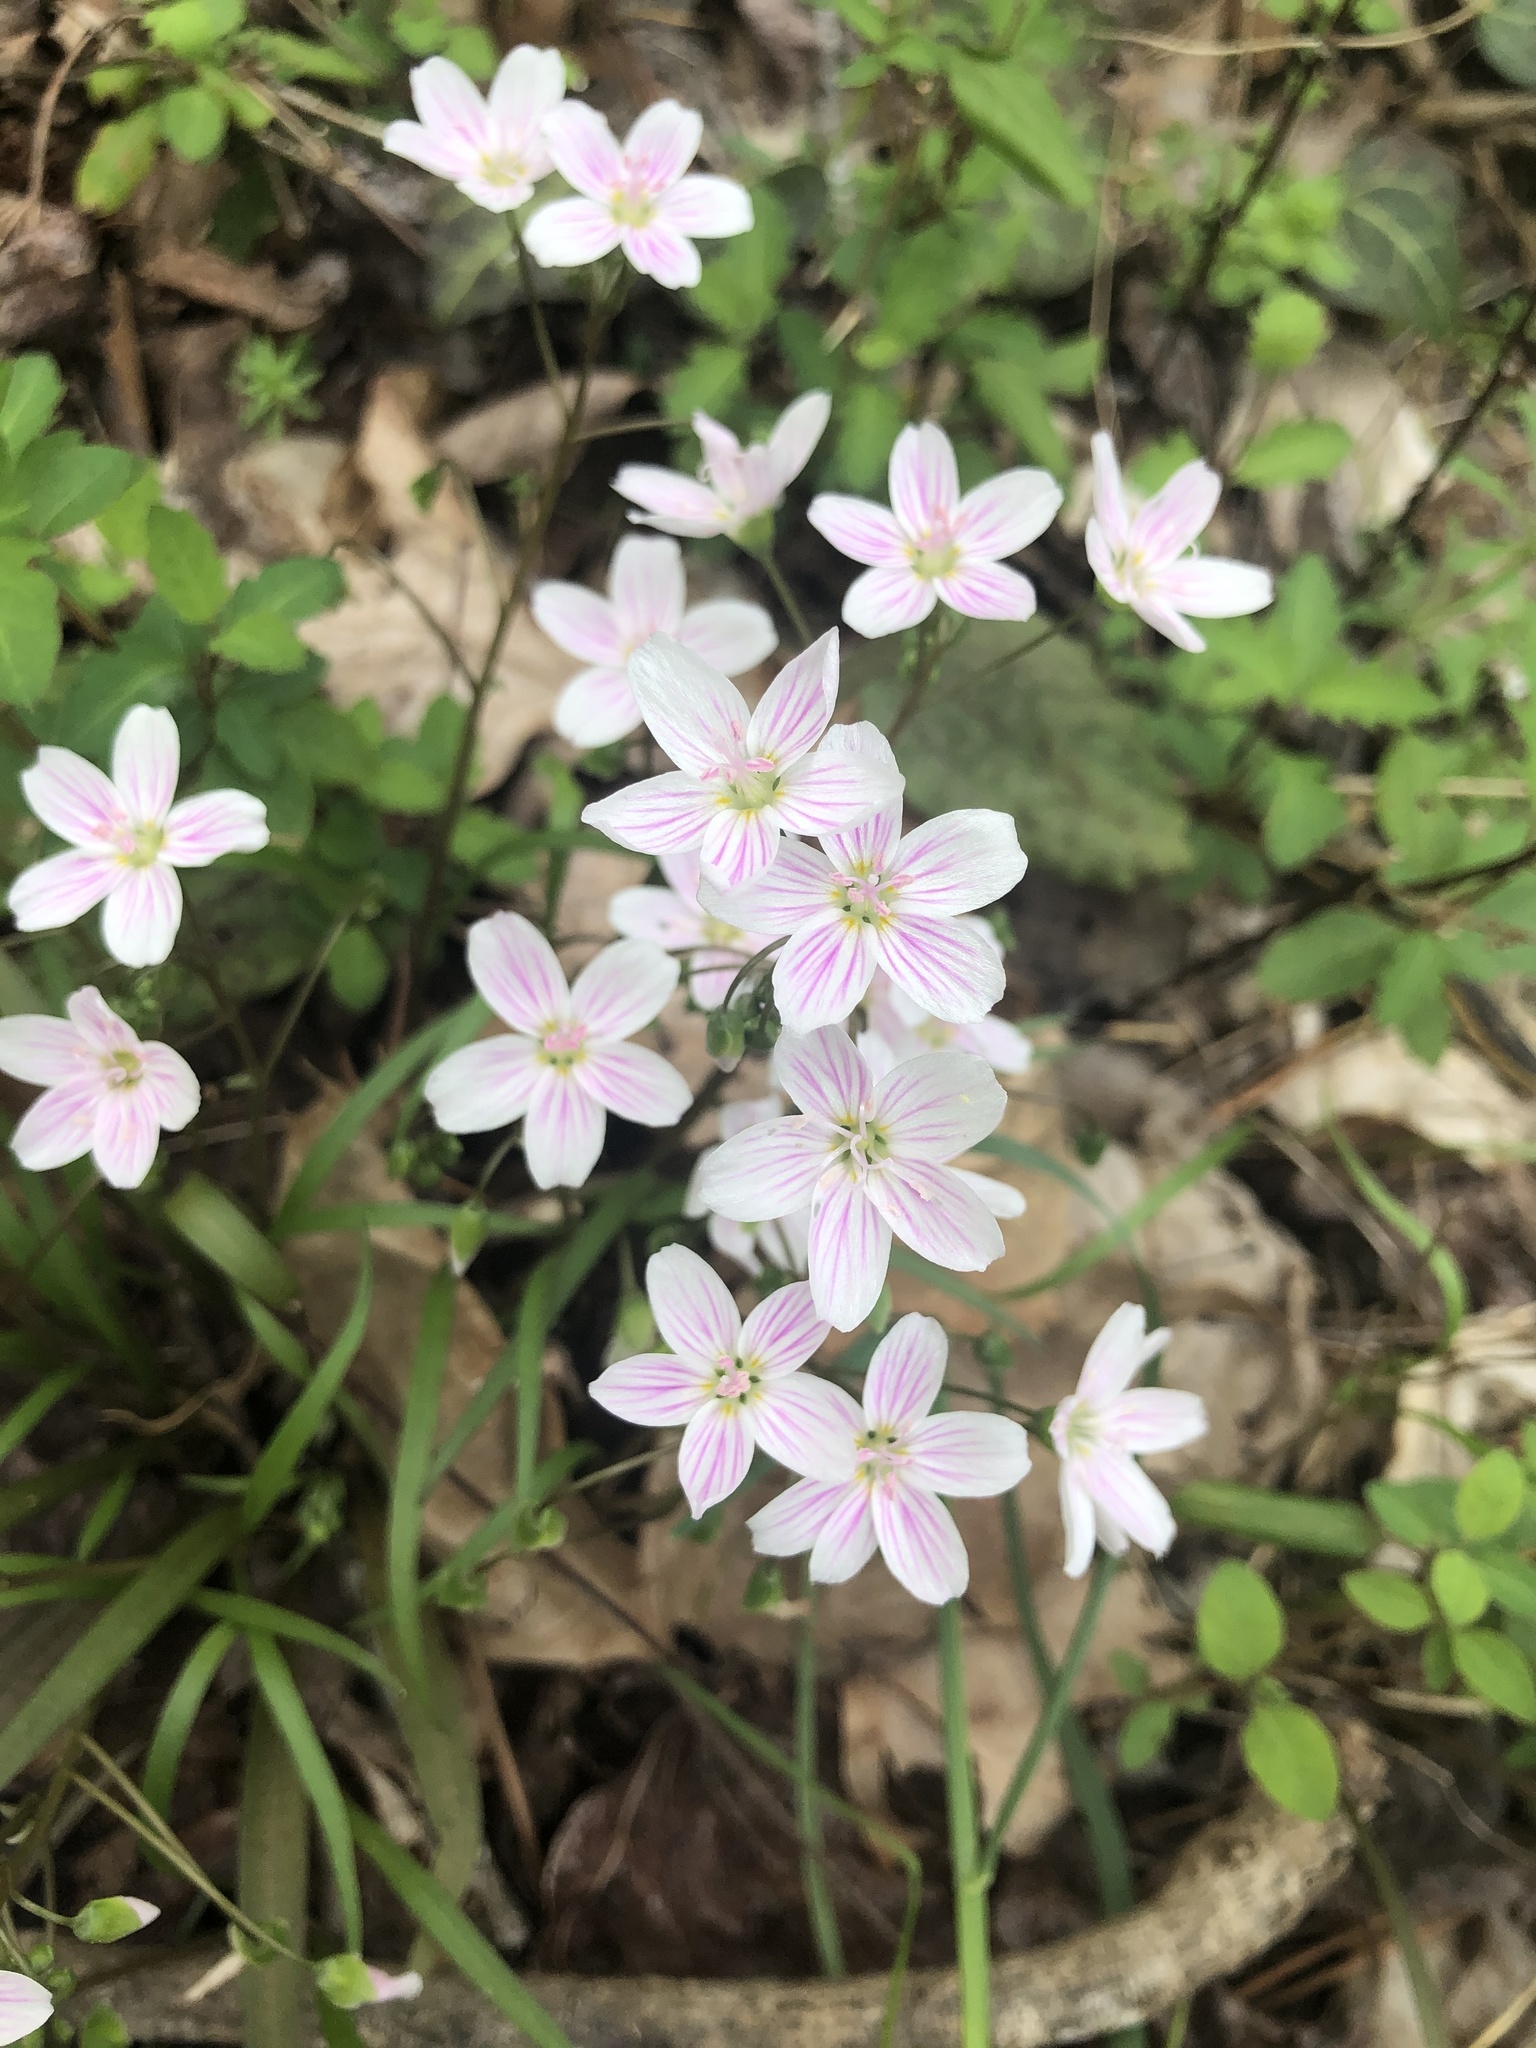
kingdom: Plantae
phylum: Tracheophyta
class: Magnoliopsida
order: Caryophyllales
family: Montiaceae
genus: Claytonia
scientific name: Claytonia virginica
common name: Virginia springbeauty
